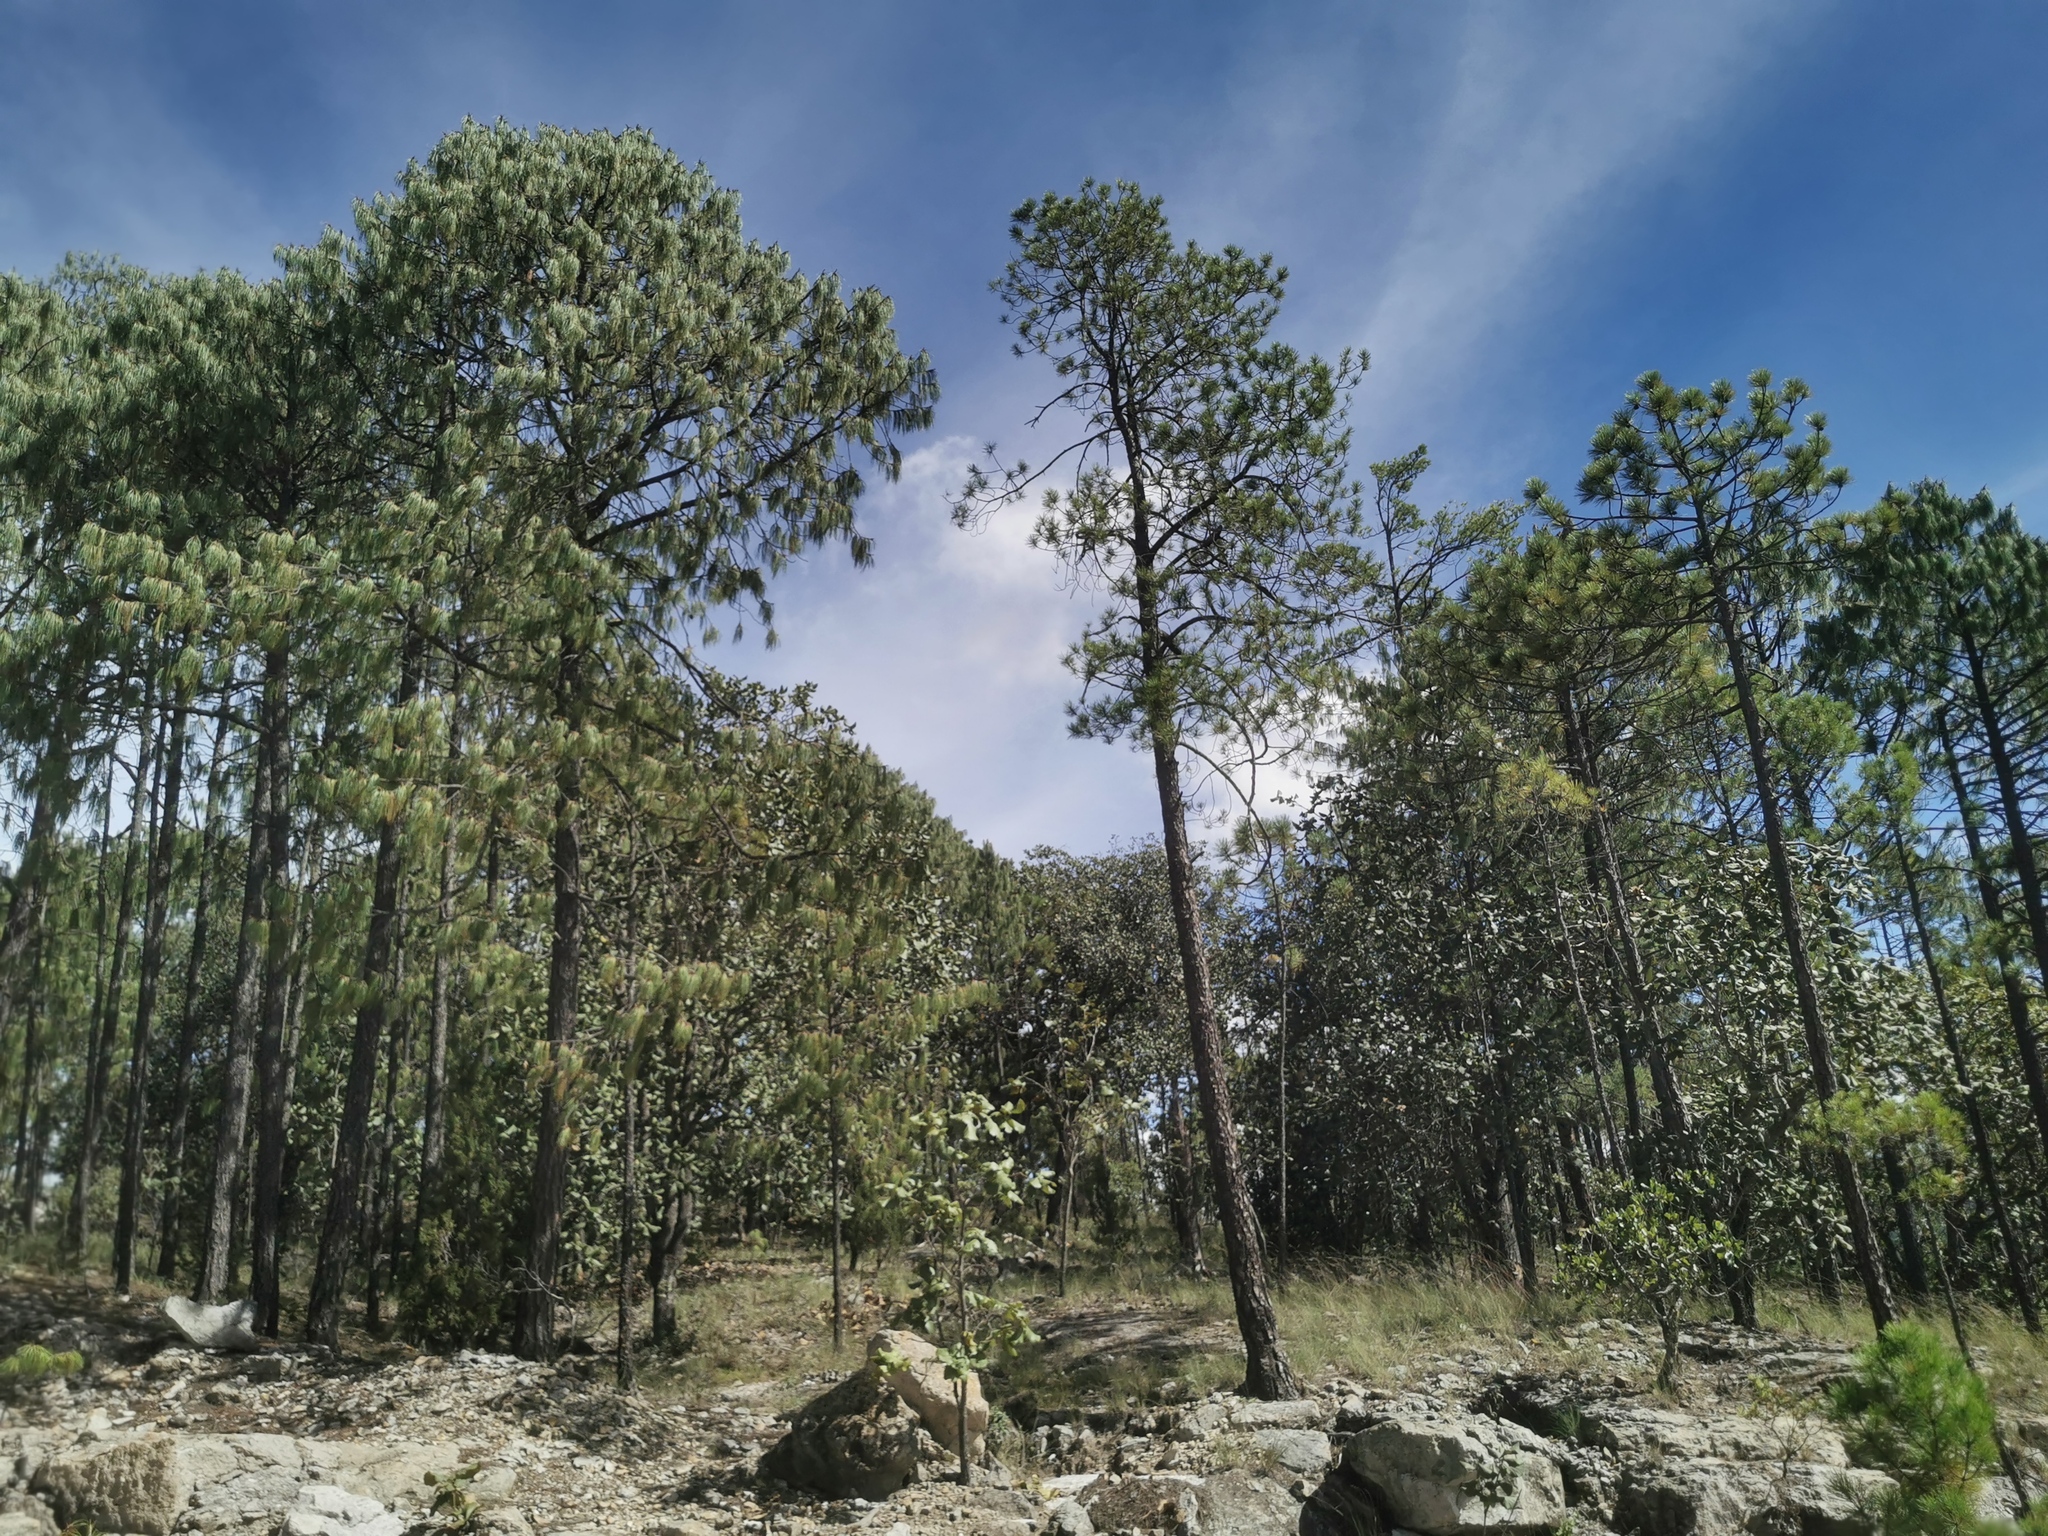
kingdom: Plantae
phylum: Tracheophyta
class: Pinopsida
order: Pinales
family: Pinaceae
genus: Pinus
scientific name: Pinus lumholtzii
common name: Lumholtz's pine
